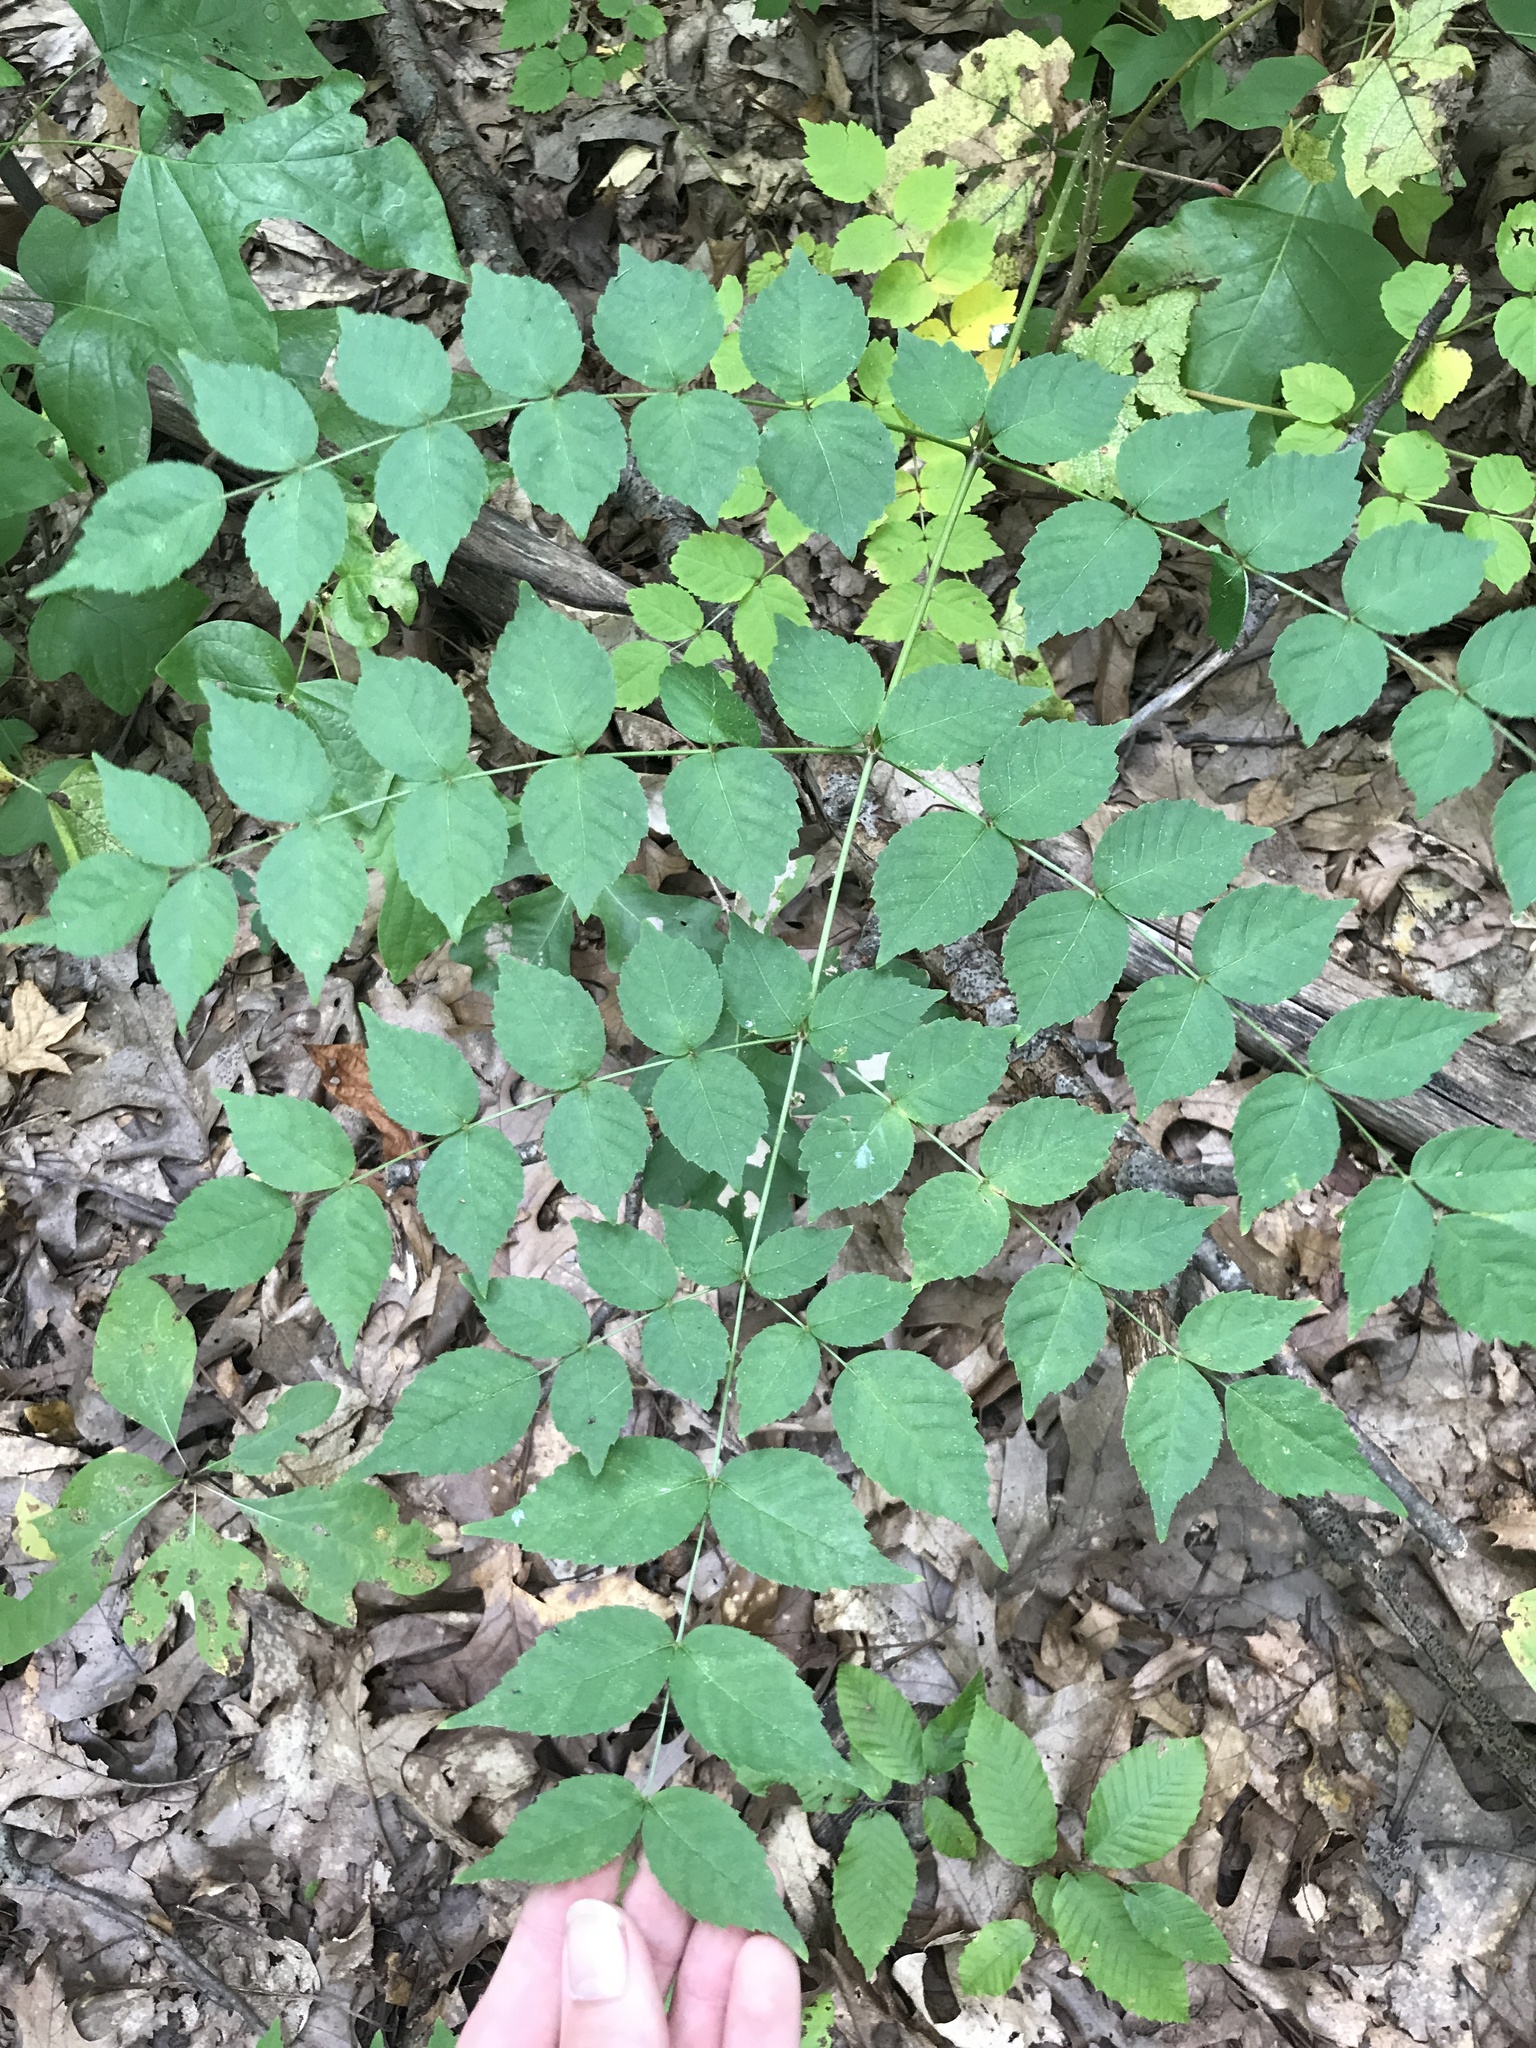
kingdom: Plantae
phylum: Tracheophyta
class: Magnoliopsida
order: Apiales
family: Araliaceae
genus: Aralia
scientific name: Aralia elata
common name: Japanese angelica-tree
